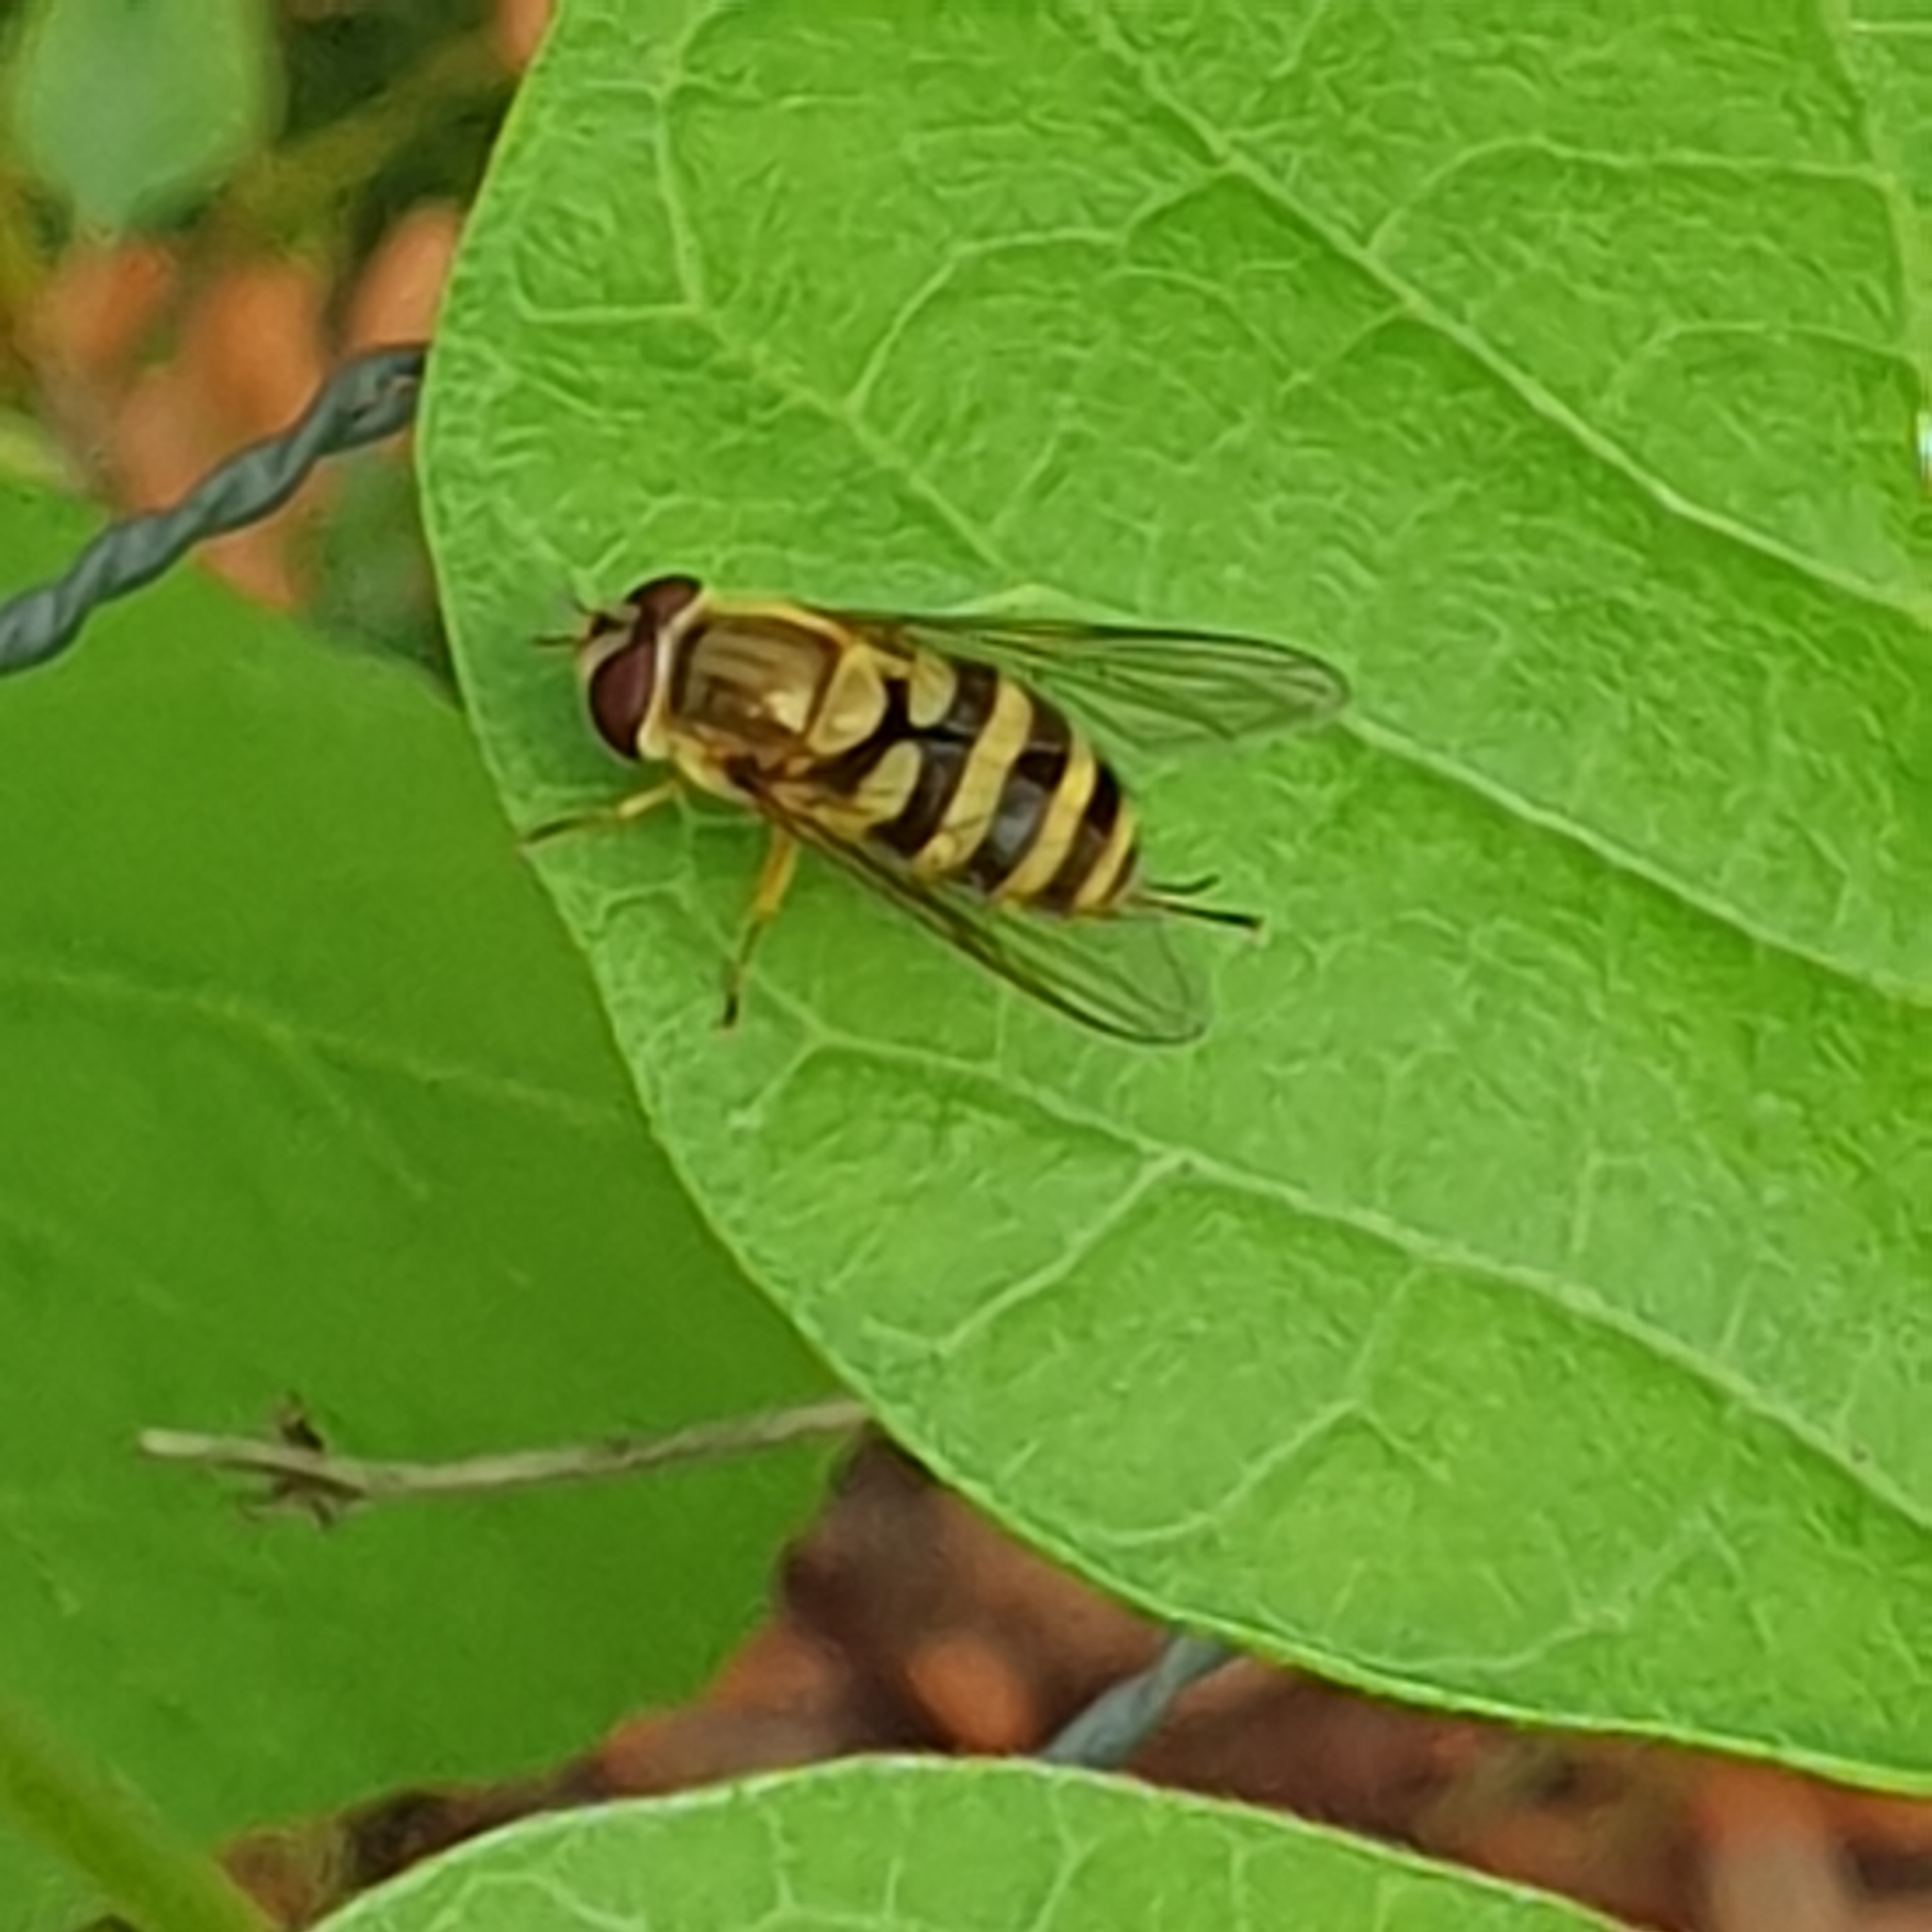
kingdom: Animalia
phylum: Arthropoda
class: Insecta
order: Diptera
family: Syrphidae
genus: Syrphus
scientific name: Syrphus
